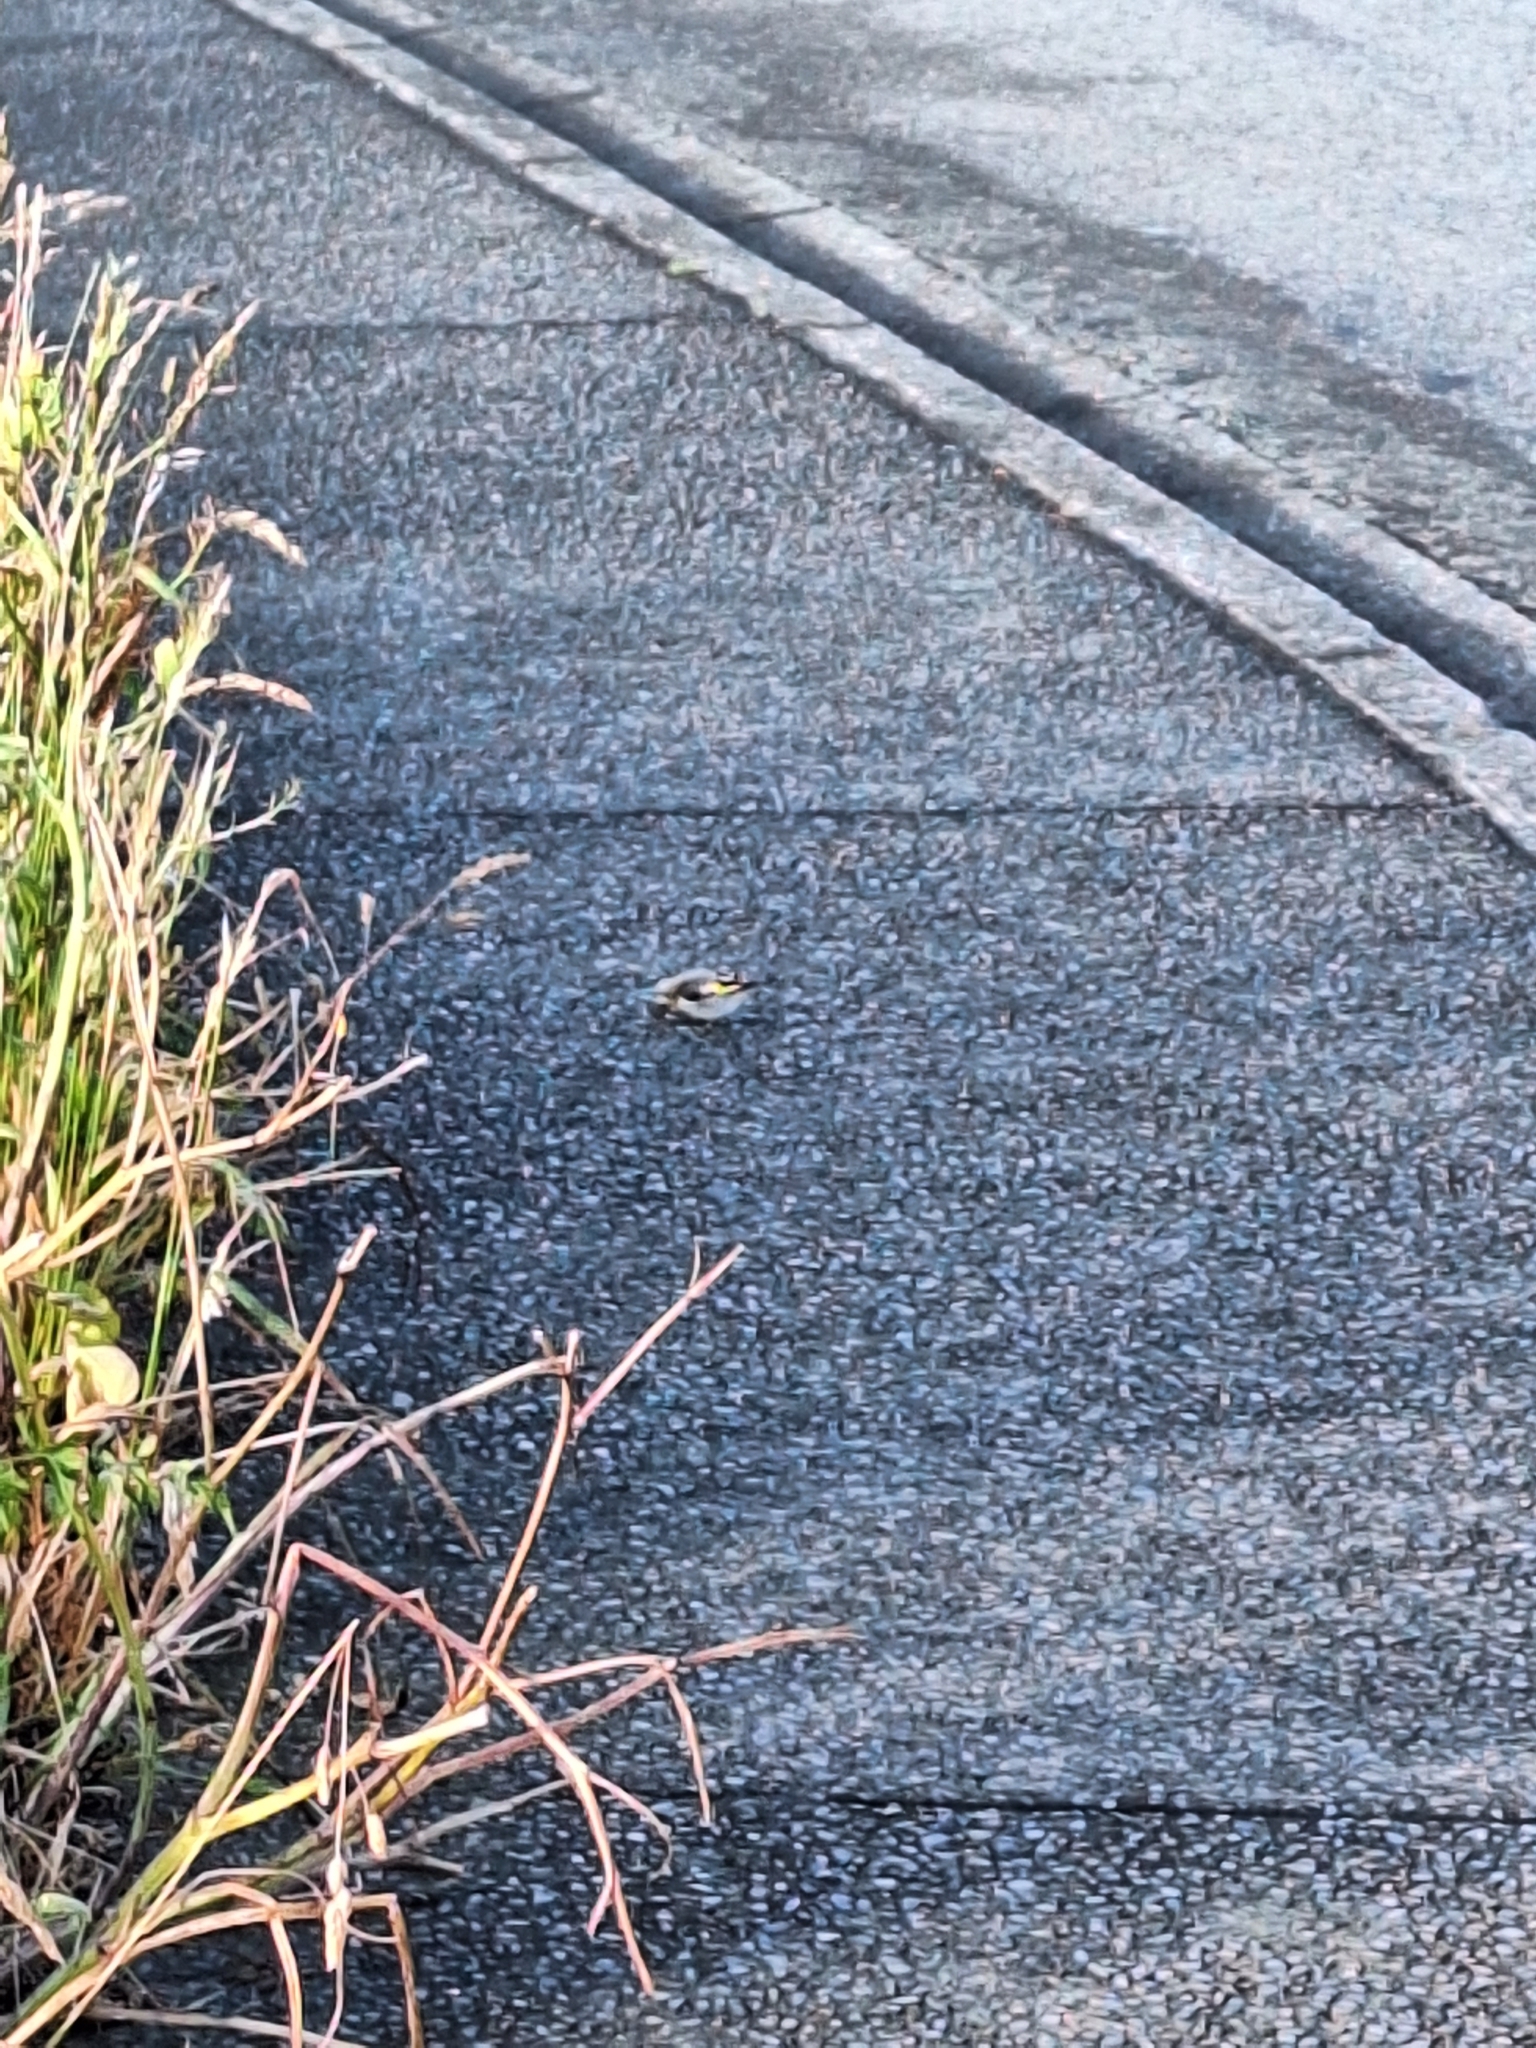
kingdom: Animalia
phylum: Chordata
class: Aves
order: Passeriformes
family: Fringillidae
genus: Carduelis
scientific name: Carduelis carduelis
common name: European goldfinch
